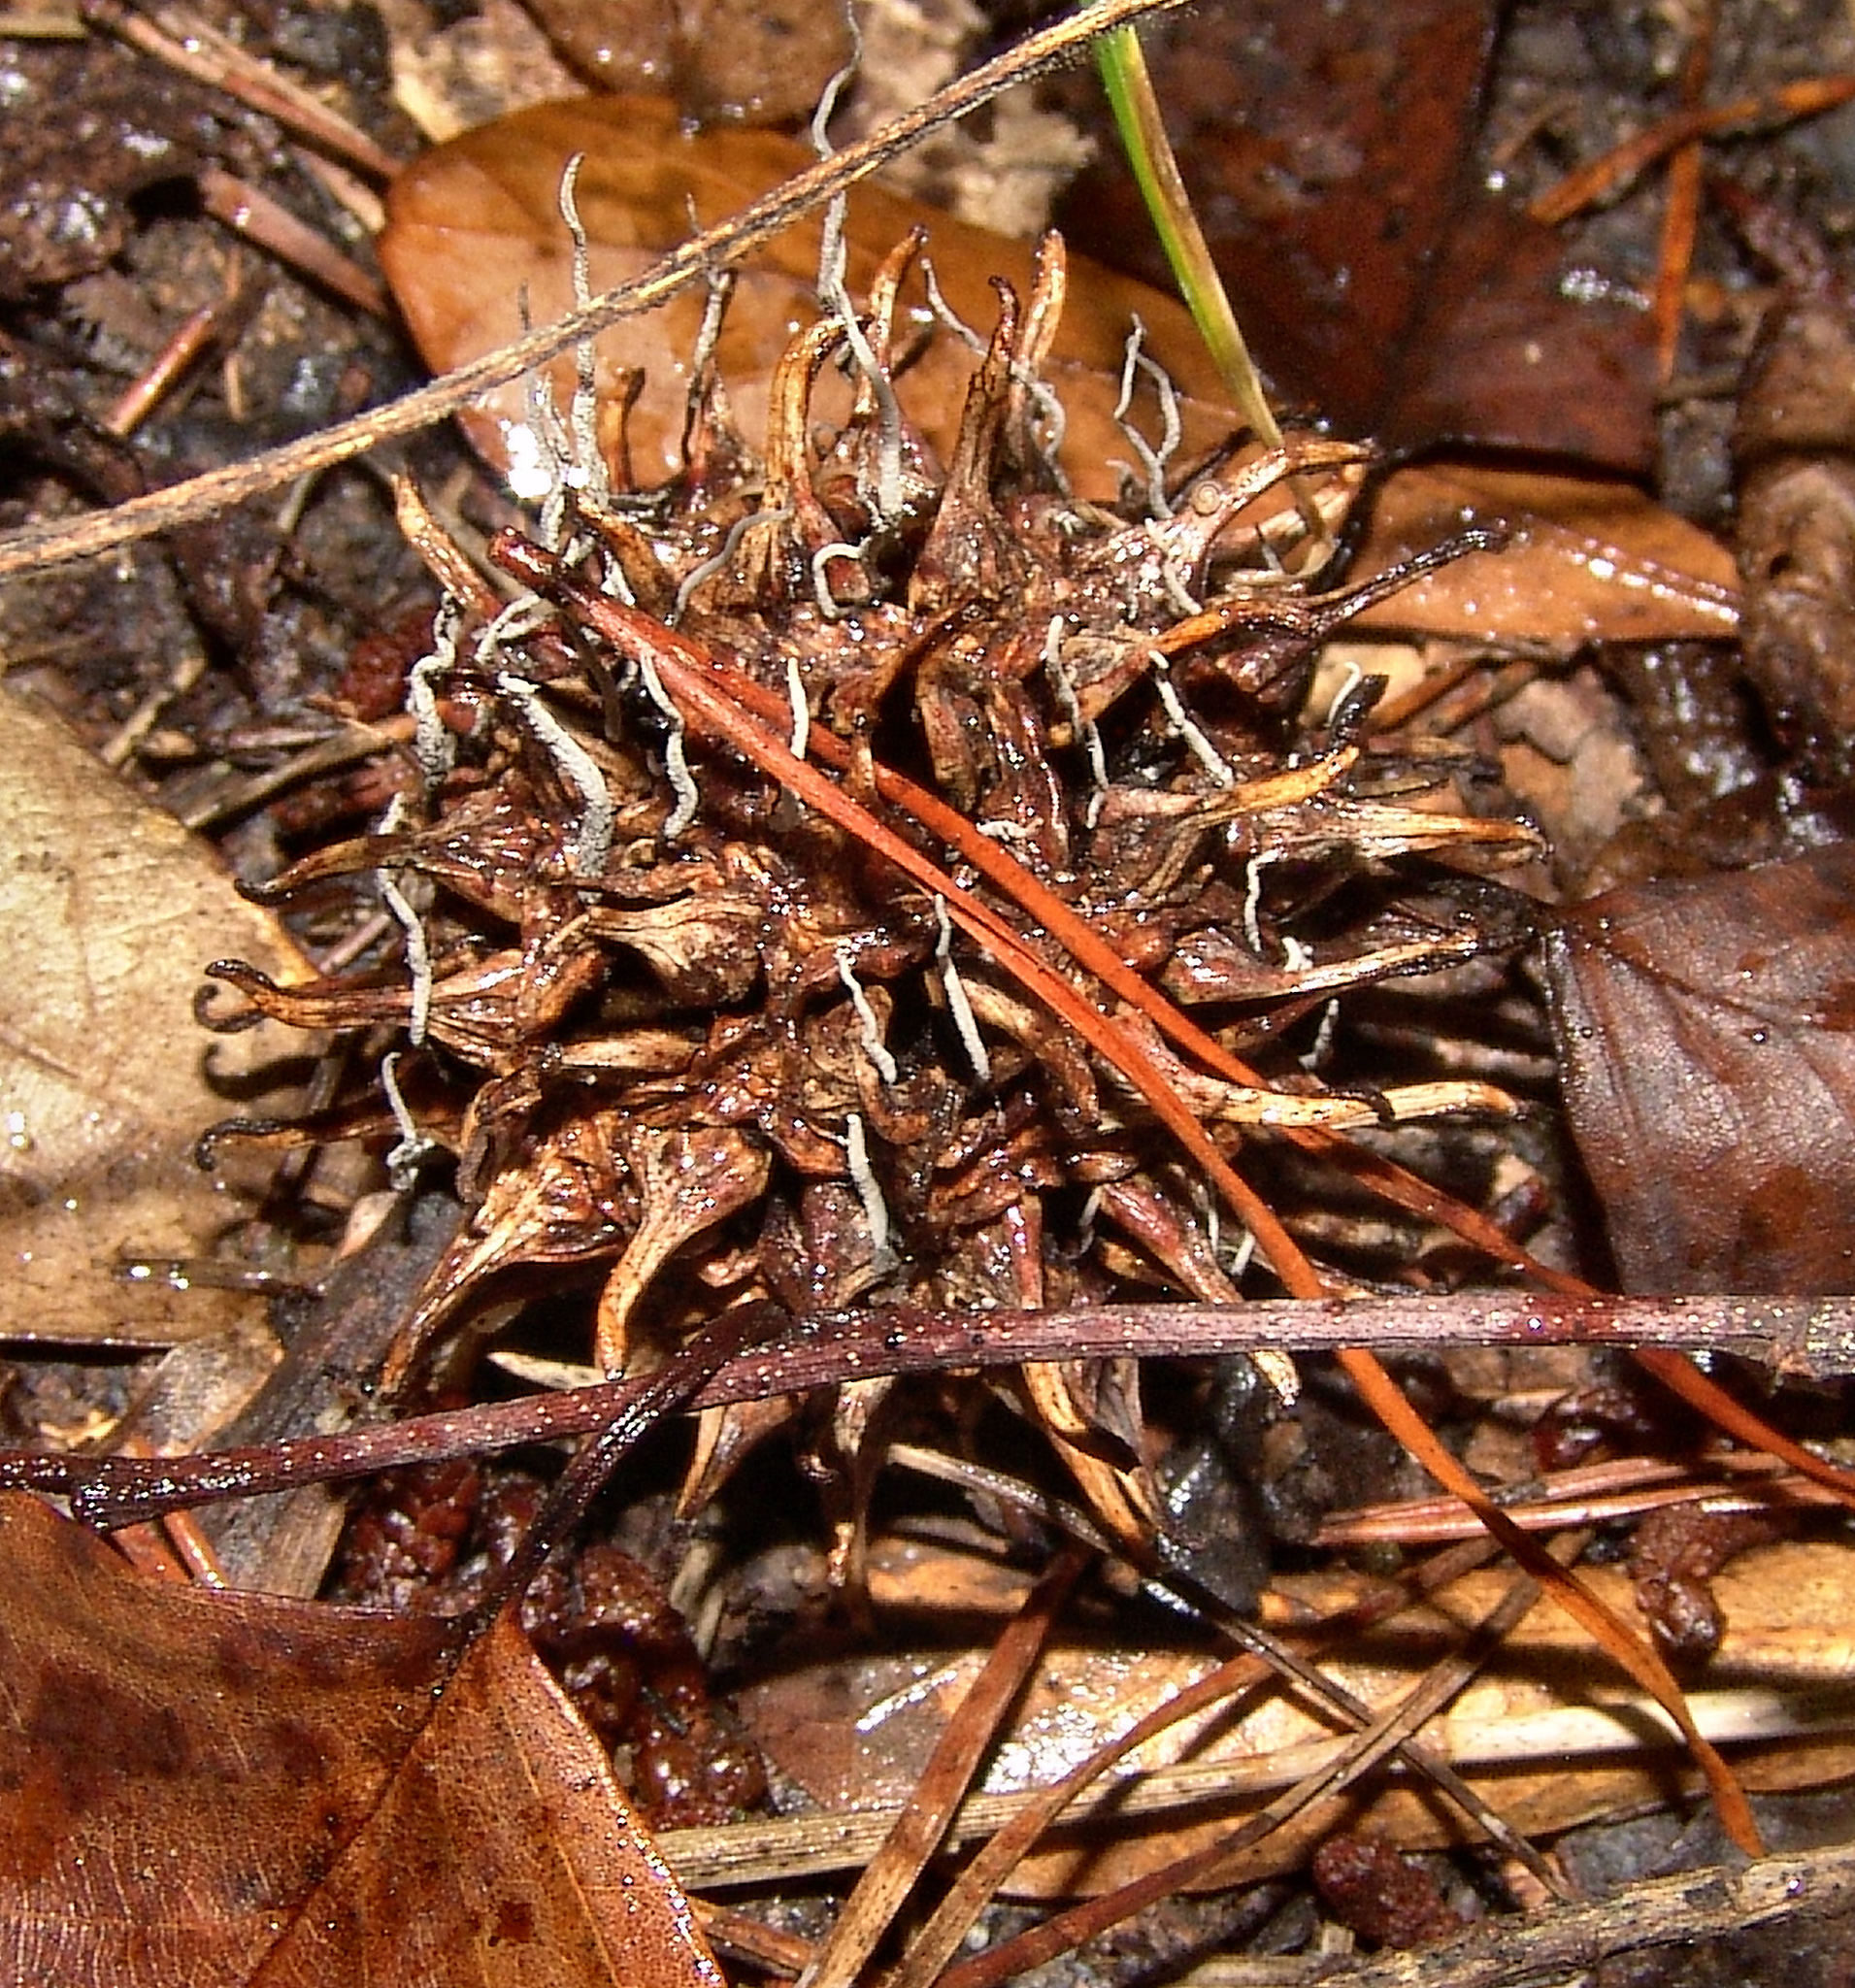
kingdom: Fungi
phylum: Ascomycota
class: Sordariomycetes
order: Xylariales
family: Xylariaceae
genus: Xylaria
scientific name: Xylaria liquidambaris
